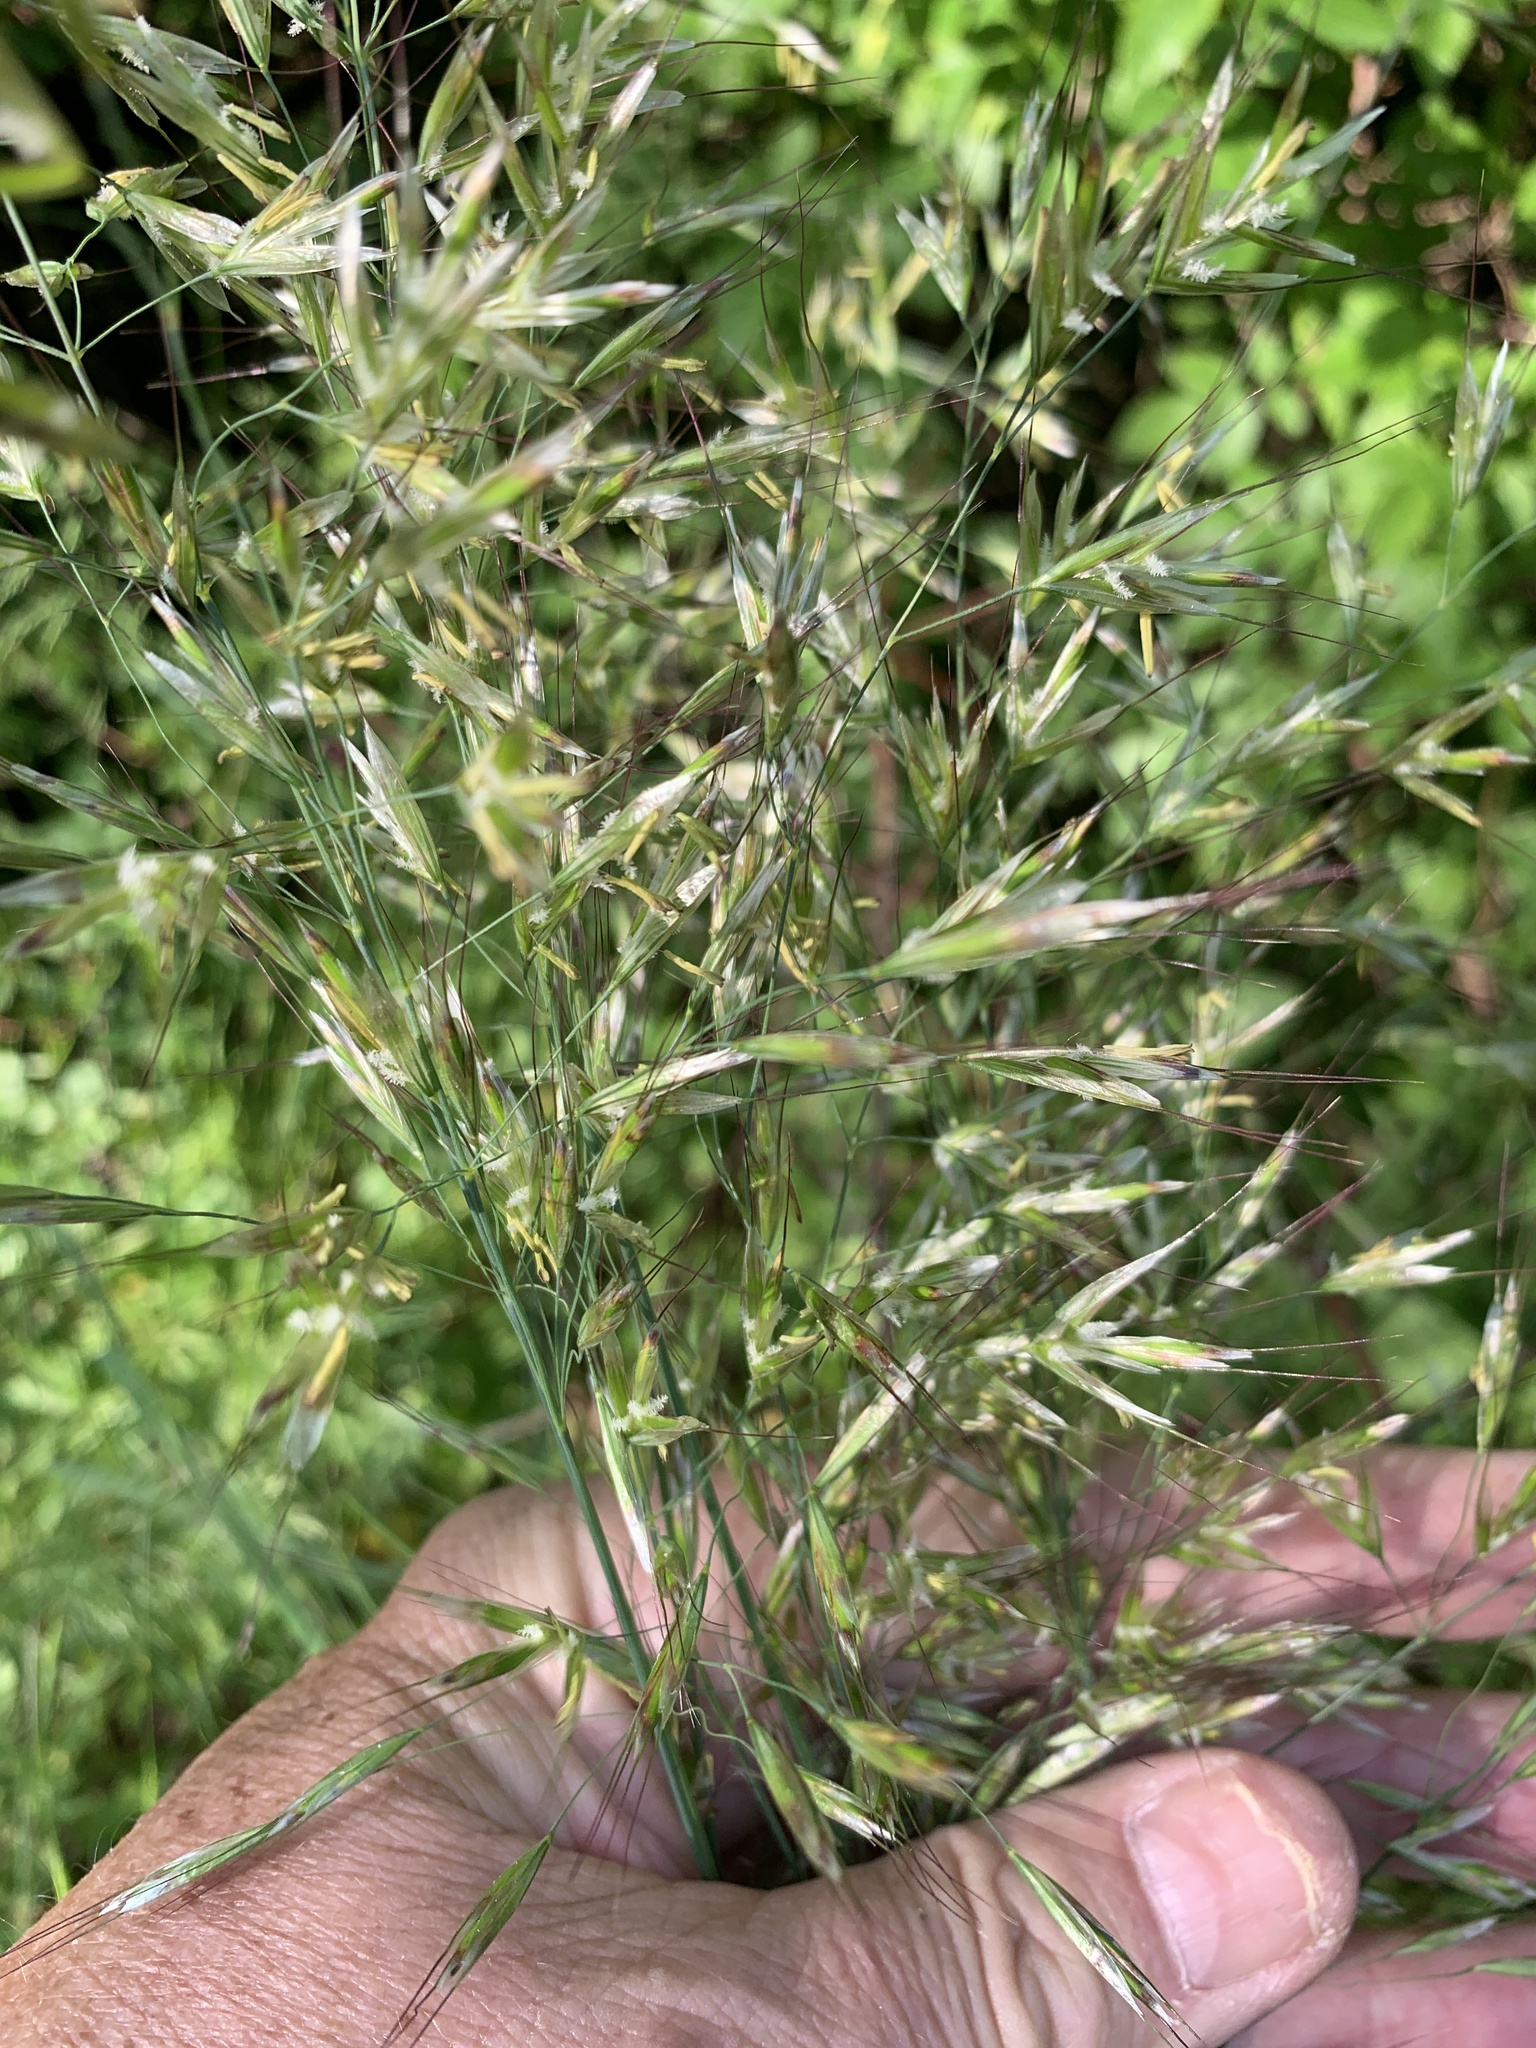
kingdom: Plantae
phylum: Tracheophyta
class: Liliopsida
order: Poales
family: Poaceae
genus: Avenula
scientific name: Avenula pubescens
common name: Downy alpine oatgrass
